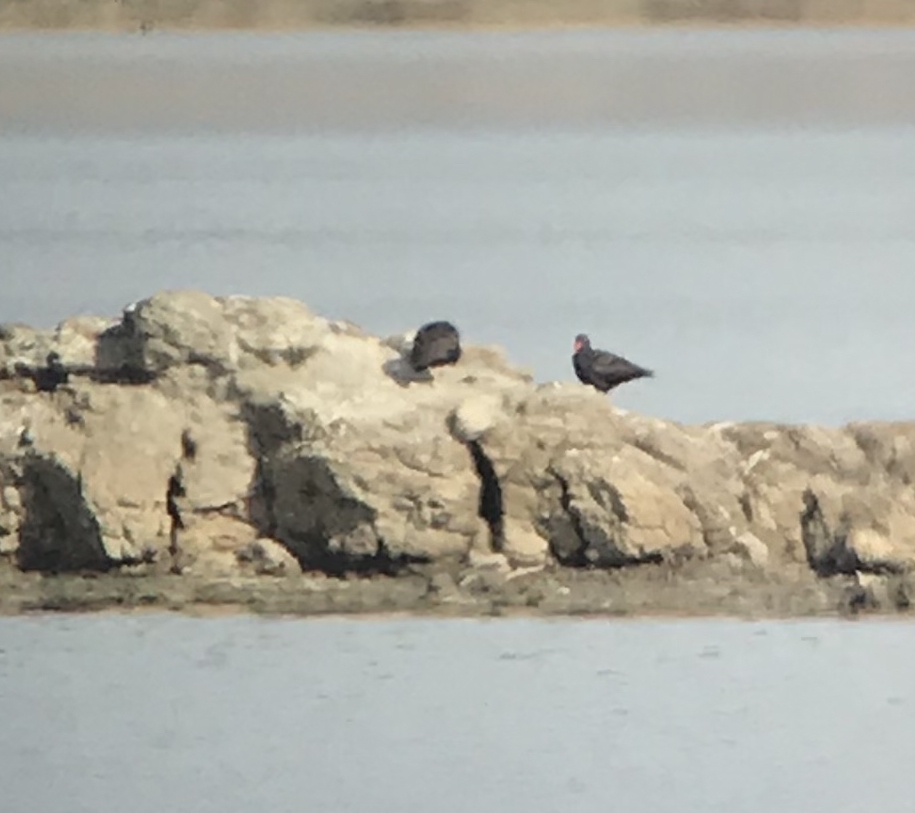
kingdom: Animalia
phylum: Chordata
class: Aves
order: Charadriiformes
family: Haematopodidae
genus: Haematopus
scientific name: Haematopus bachmani
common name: Black oystercatcher
